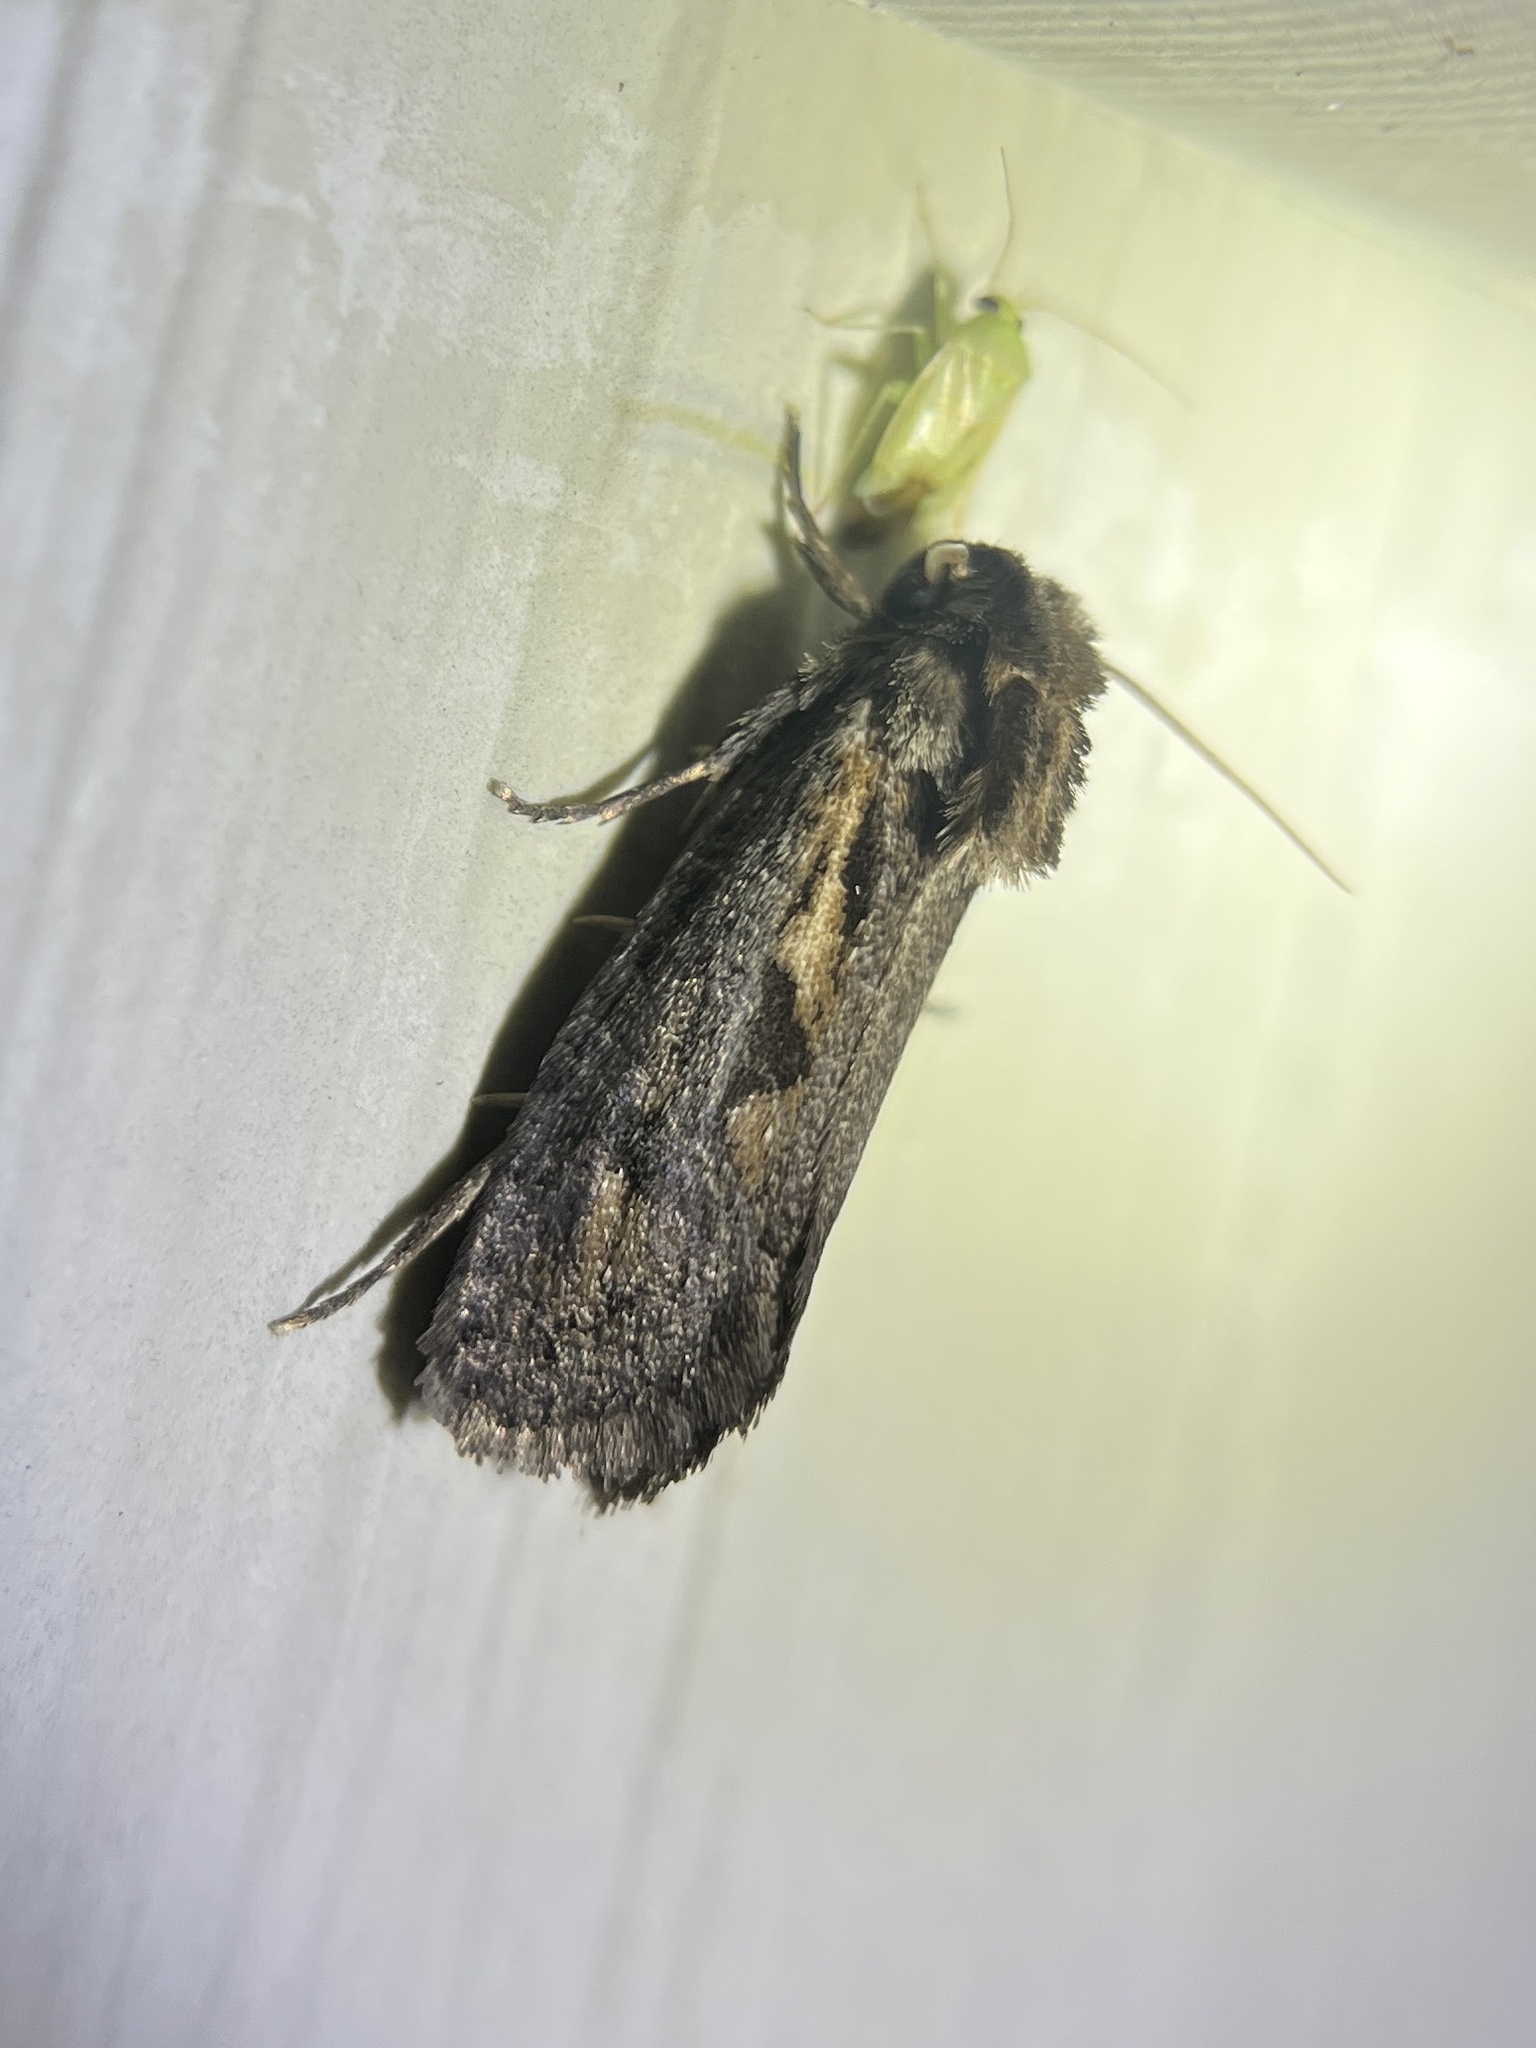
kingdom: Animalia
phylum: Arthropoda
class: Insecta
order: Lepidoptera
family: Tineidae
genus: Acrolophus
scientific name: Acrolophus popeanella
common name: Clemens' grass tubeworm moth
